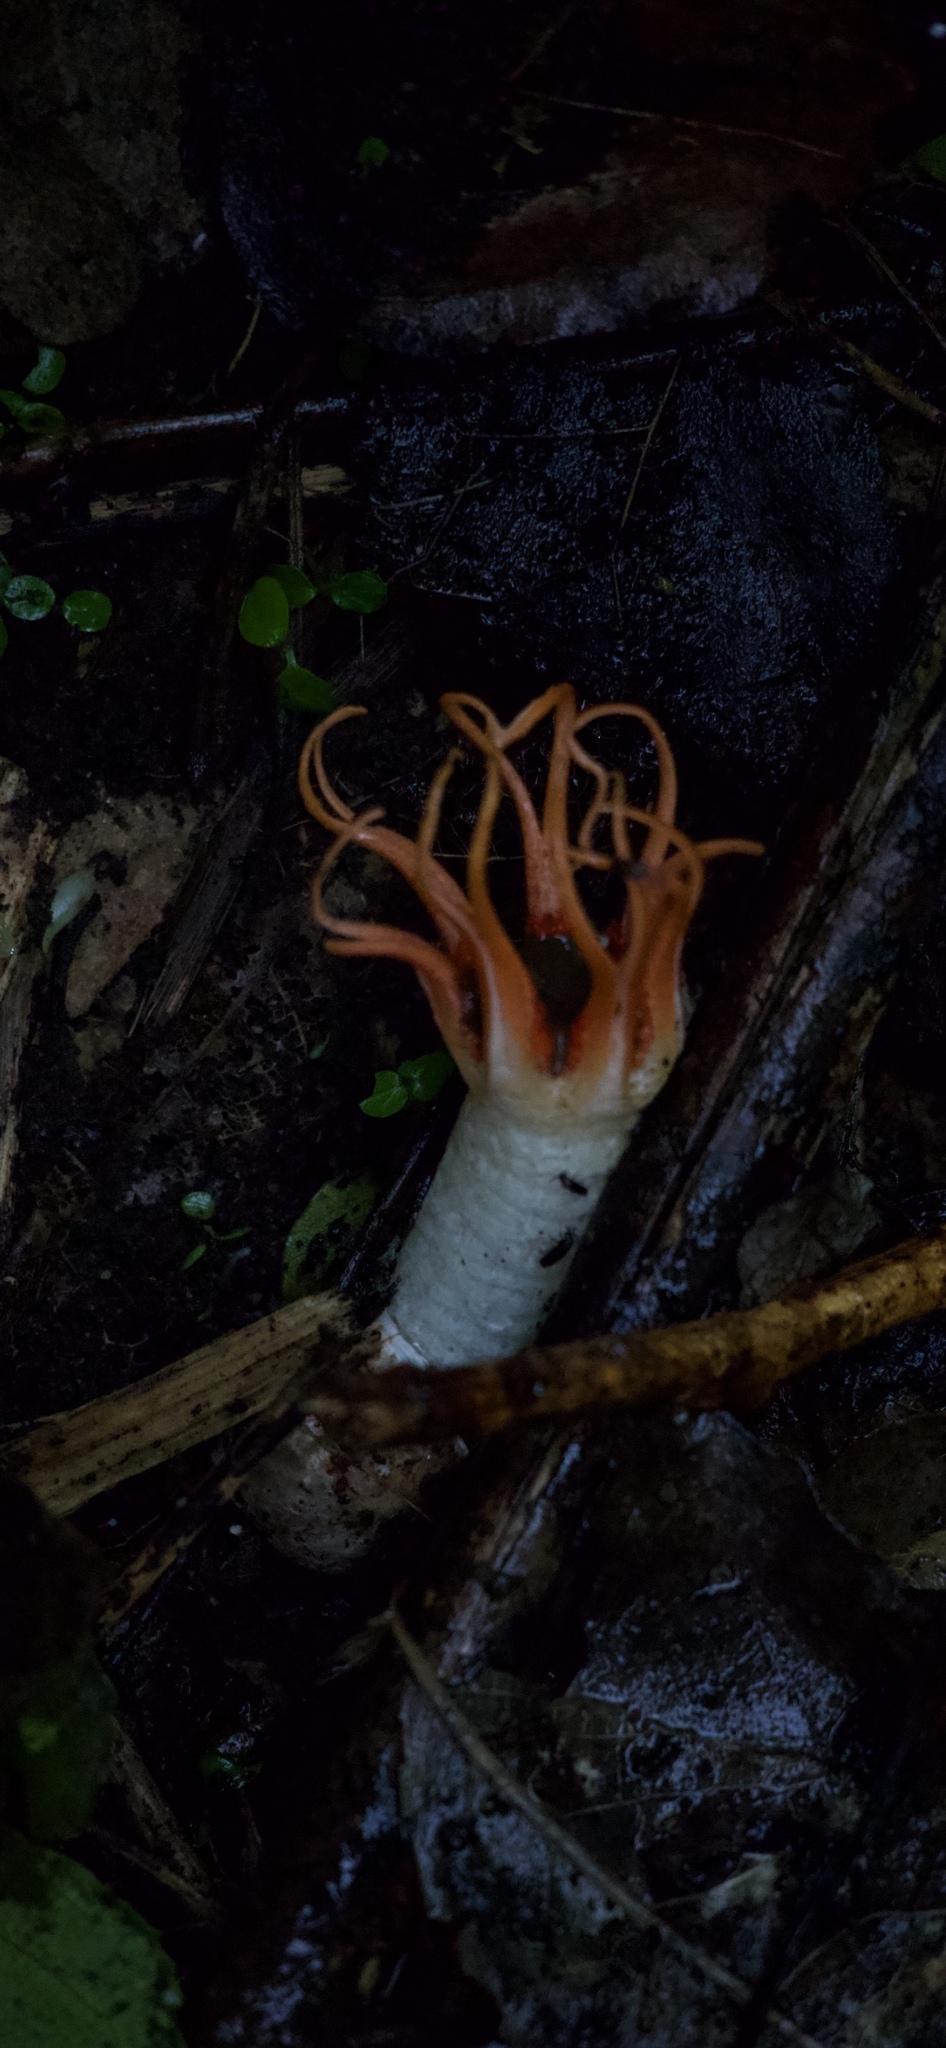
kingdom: Fungi
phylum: Basidiomycota
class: Agaricomycetes
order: Phallales
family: Phallaceae
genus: Aseroe
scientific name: Aseroe rubra
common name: Starfish fungus
